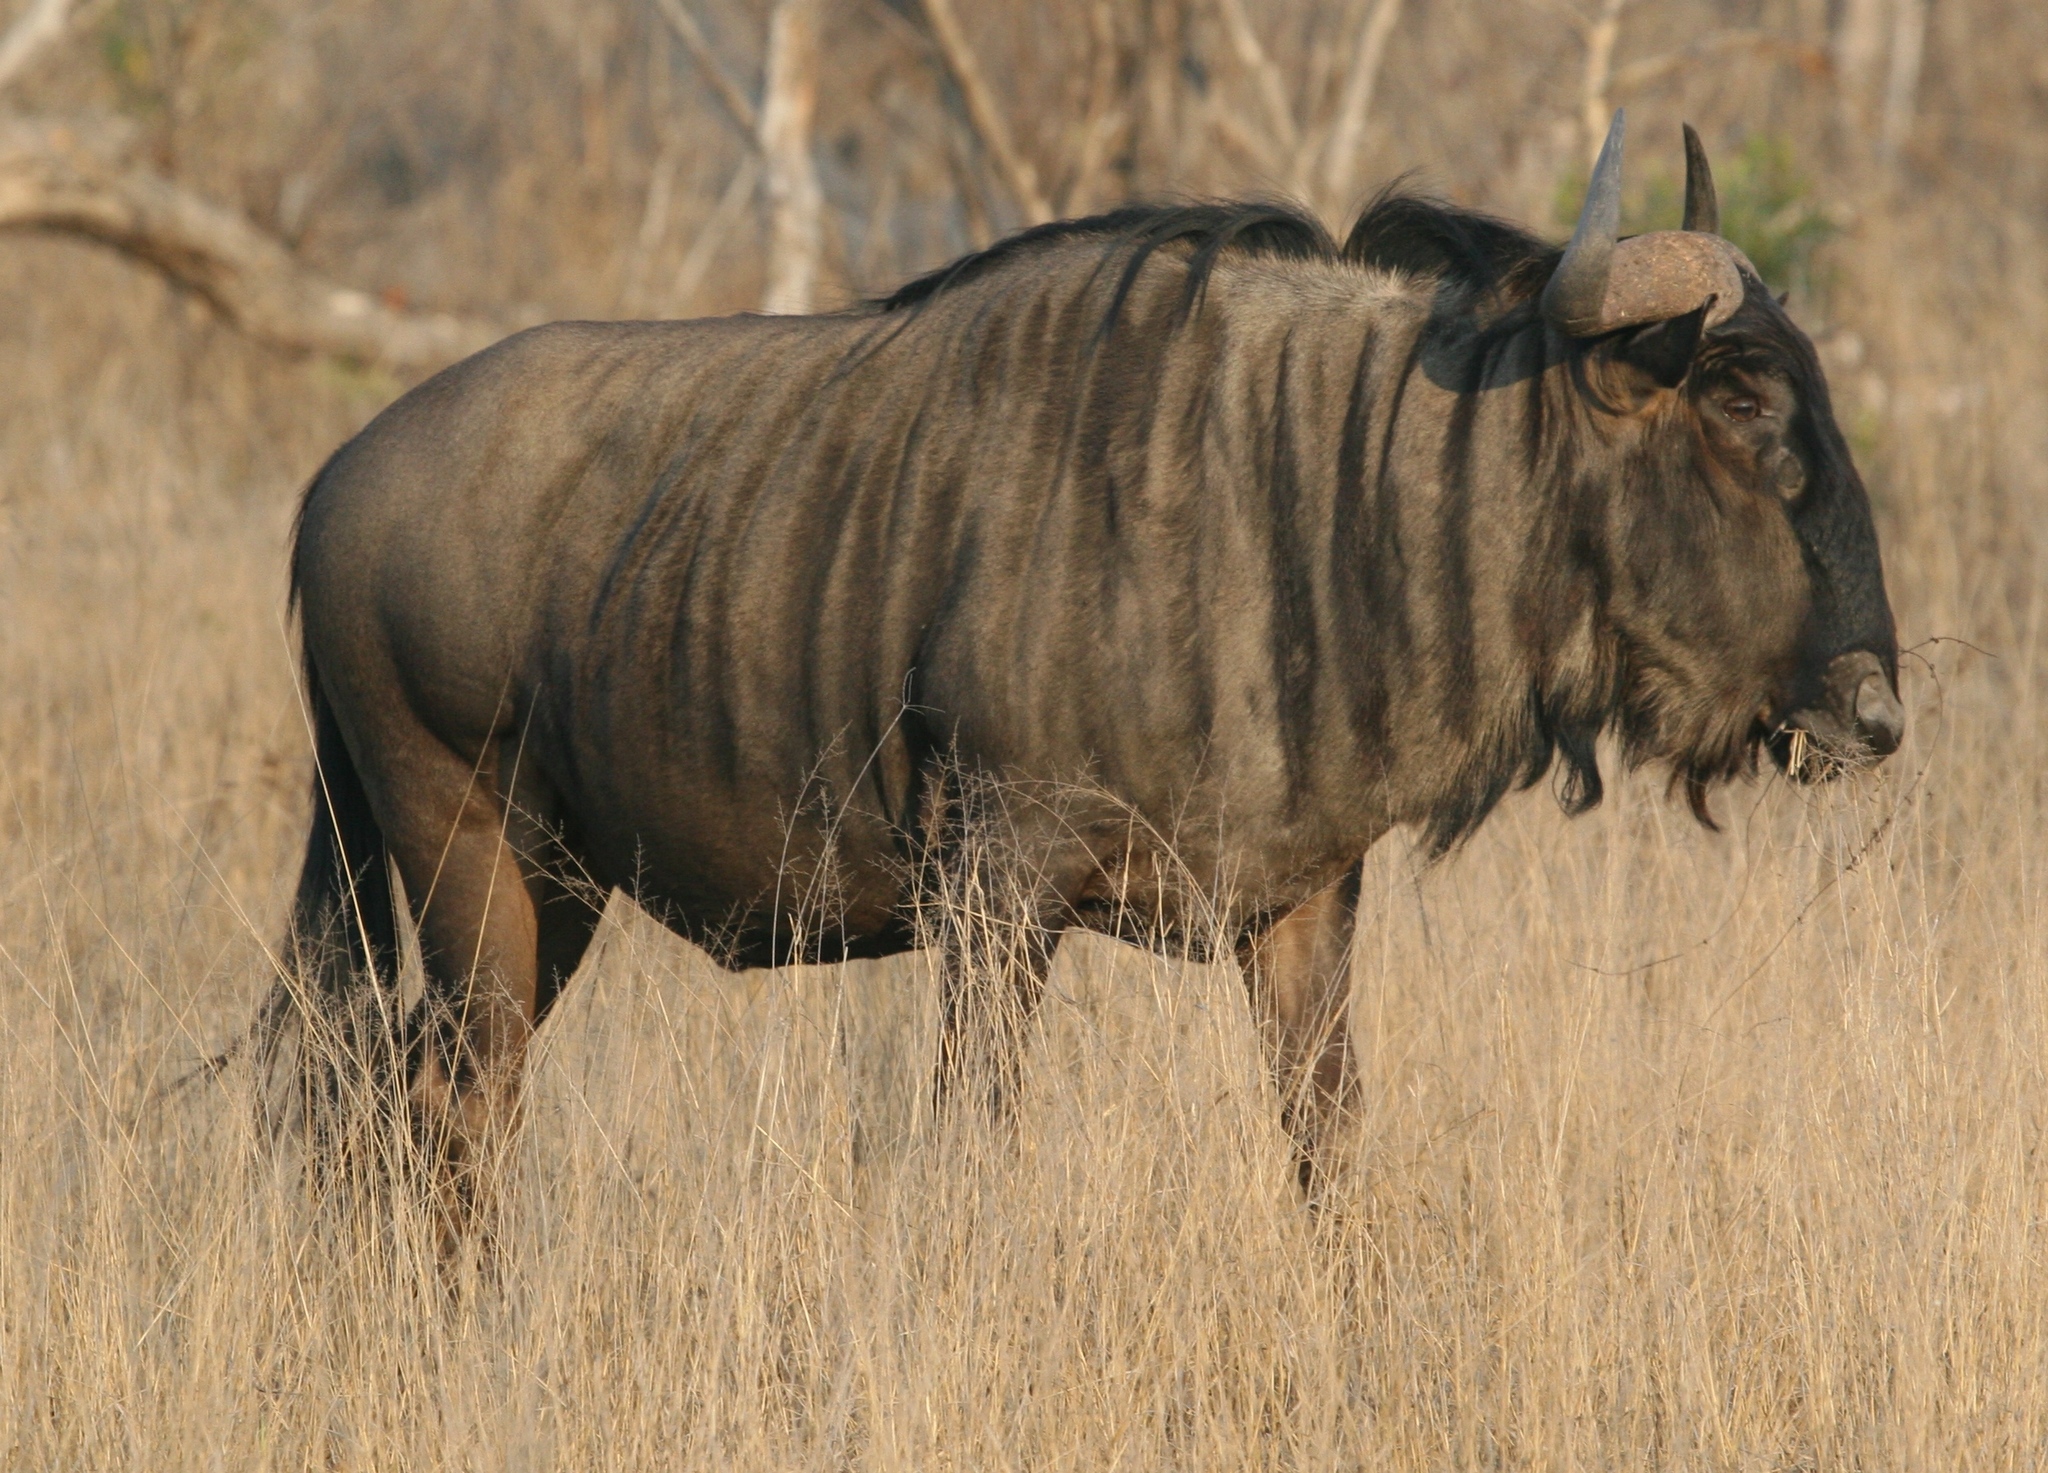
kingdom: Animalia
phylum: Chordata
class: Mammalia
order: Artiodactyla
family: Bovidae
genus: Connochaetes
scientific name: Connochaetes taurinus
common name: Blue wildebeest
